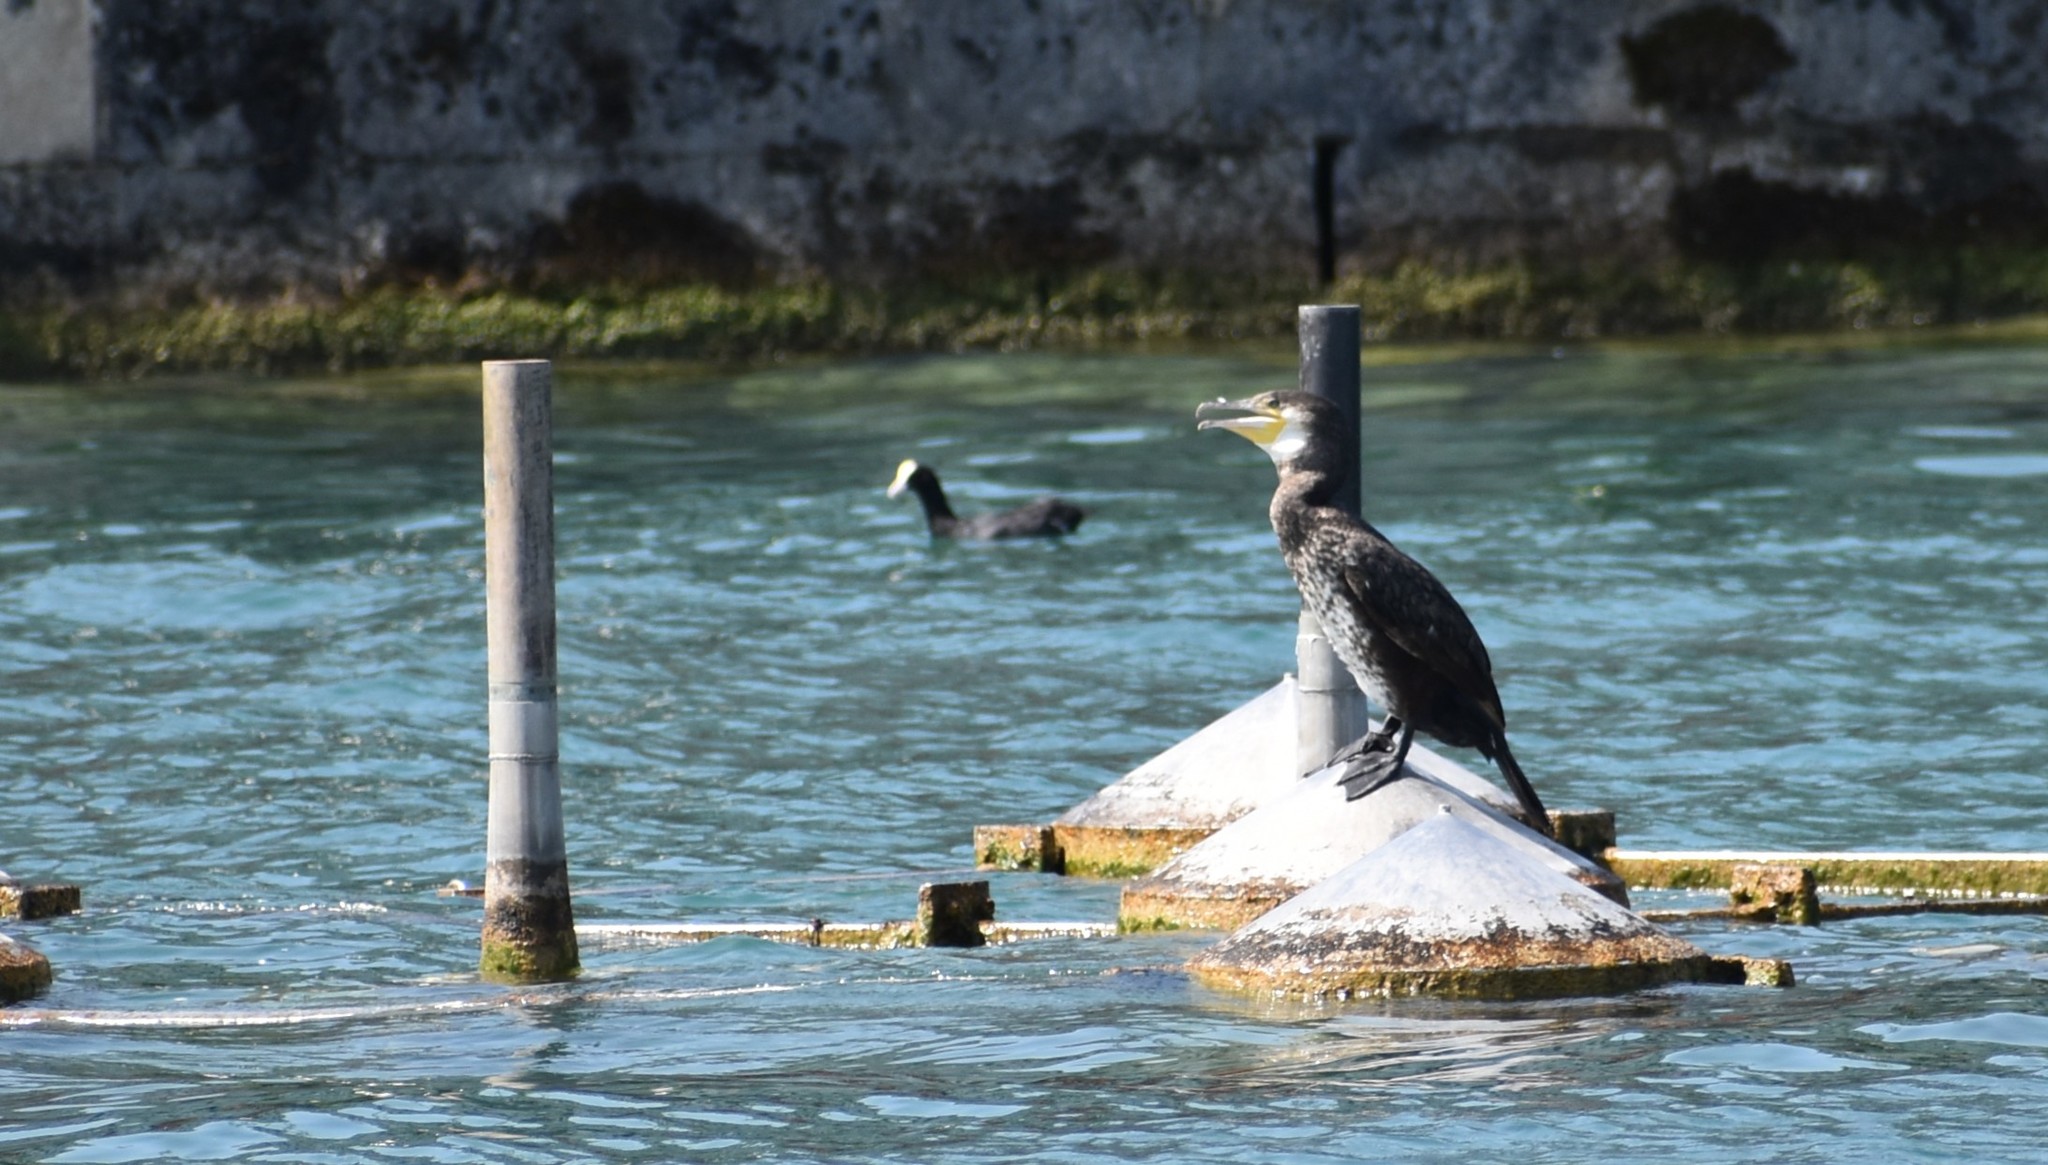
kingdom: Animalia
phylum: Chordata
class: Aves
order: Suliformes
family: Phalacrocoracidae
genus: Phalacrocorax
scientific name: Phalacrocorax carbo
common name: Great cormorant
